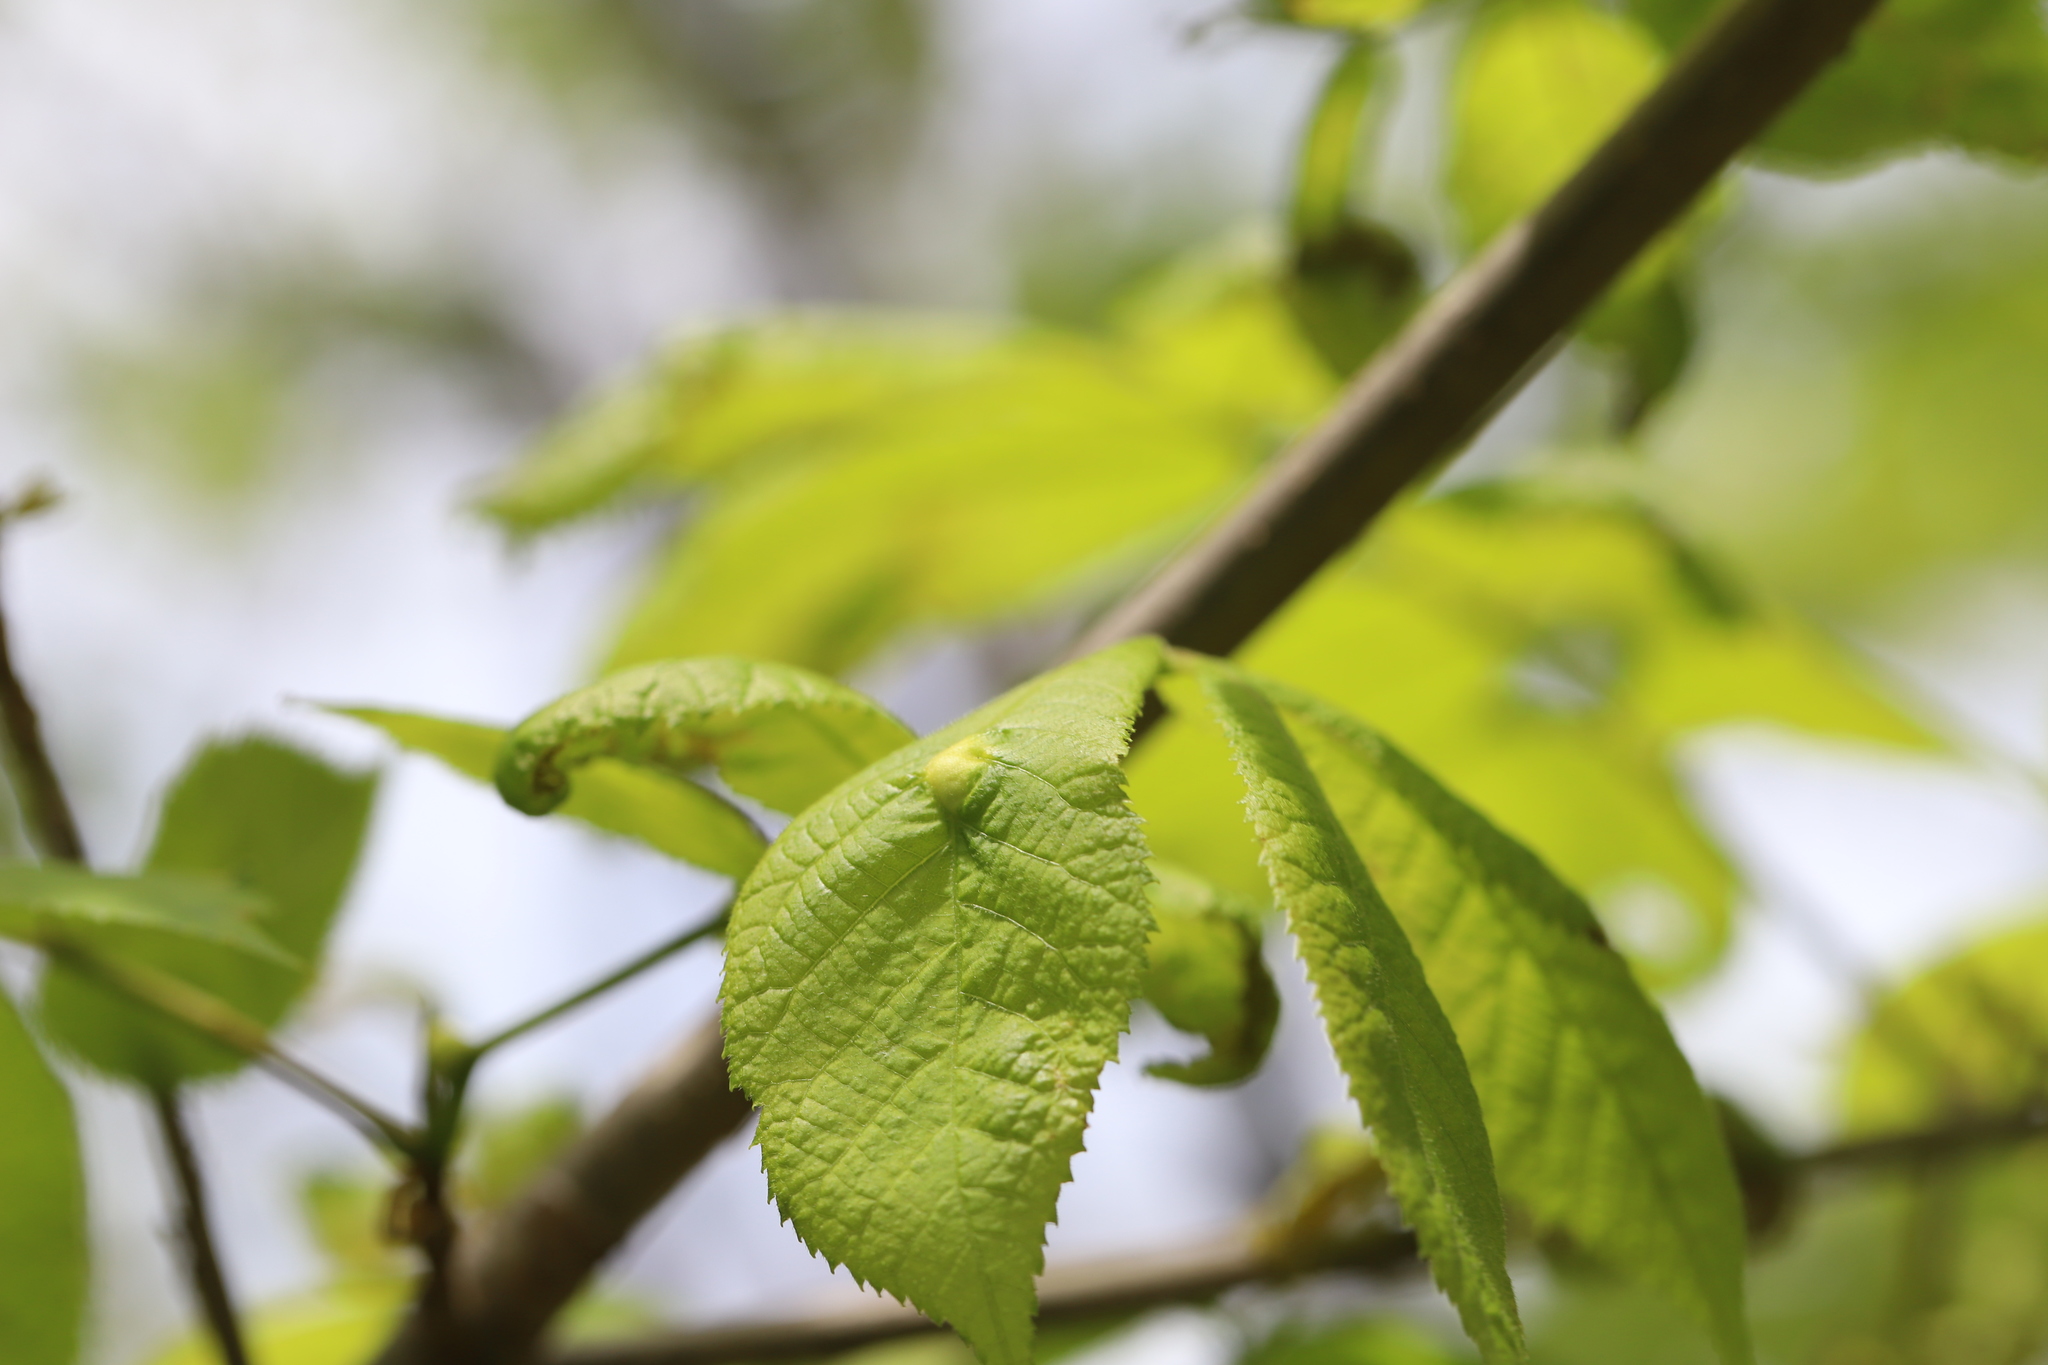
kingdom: Animalia
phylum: Arthropoda
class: Insecta
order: Hemiptera
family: Phylloxeridae
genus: Phylloxera
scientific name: Phylloxera
